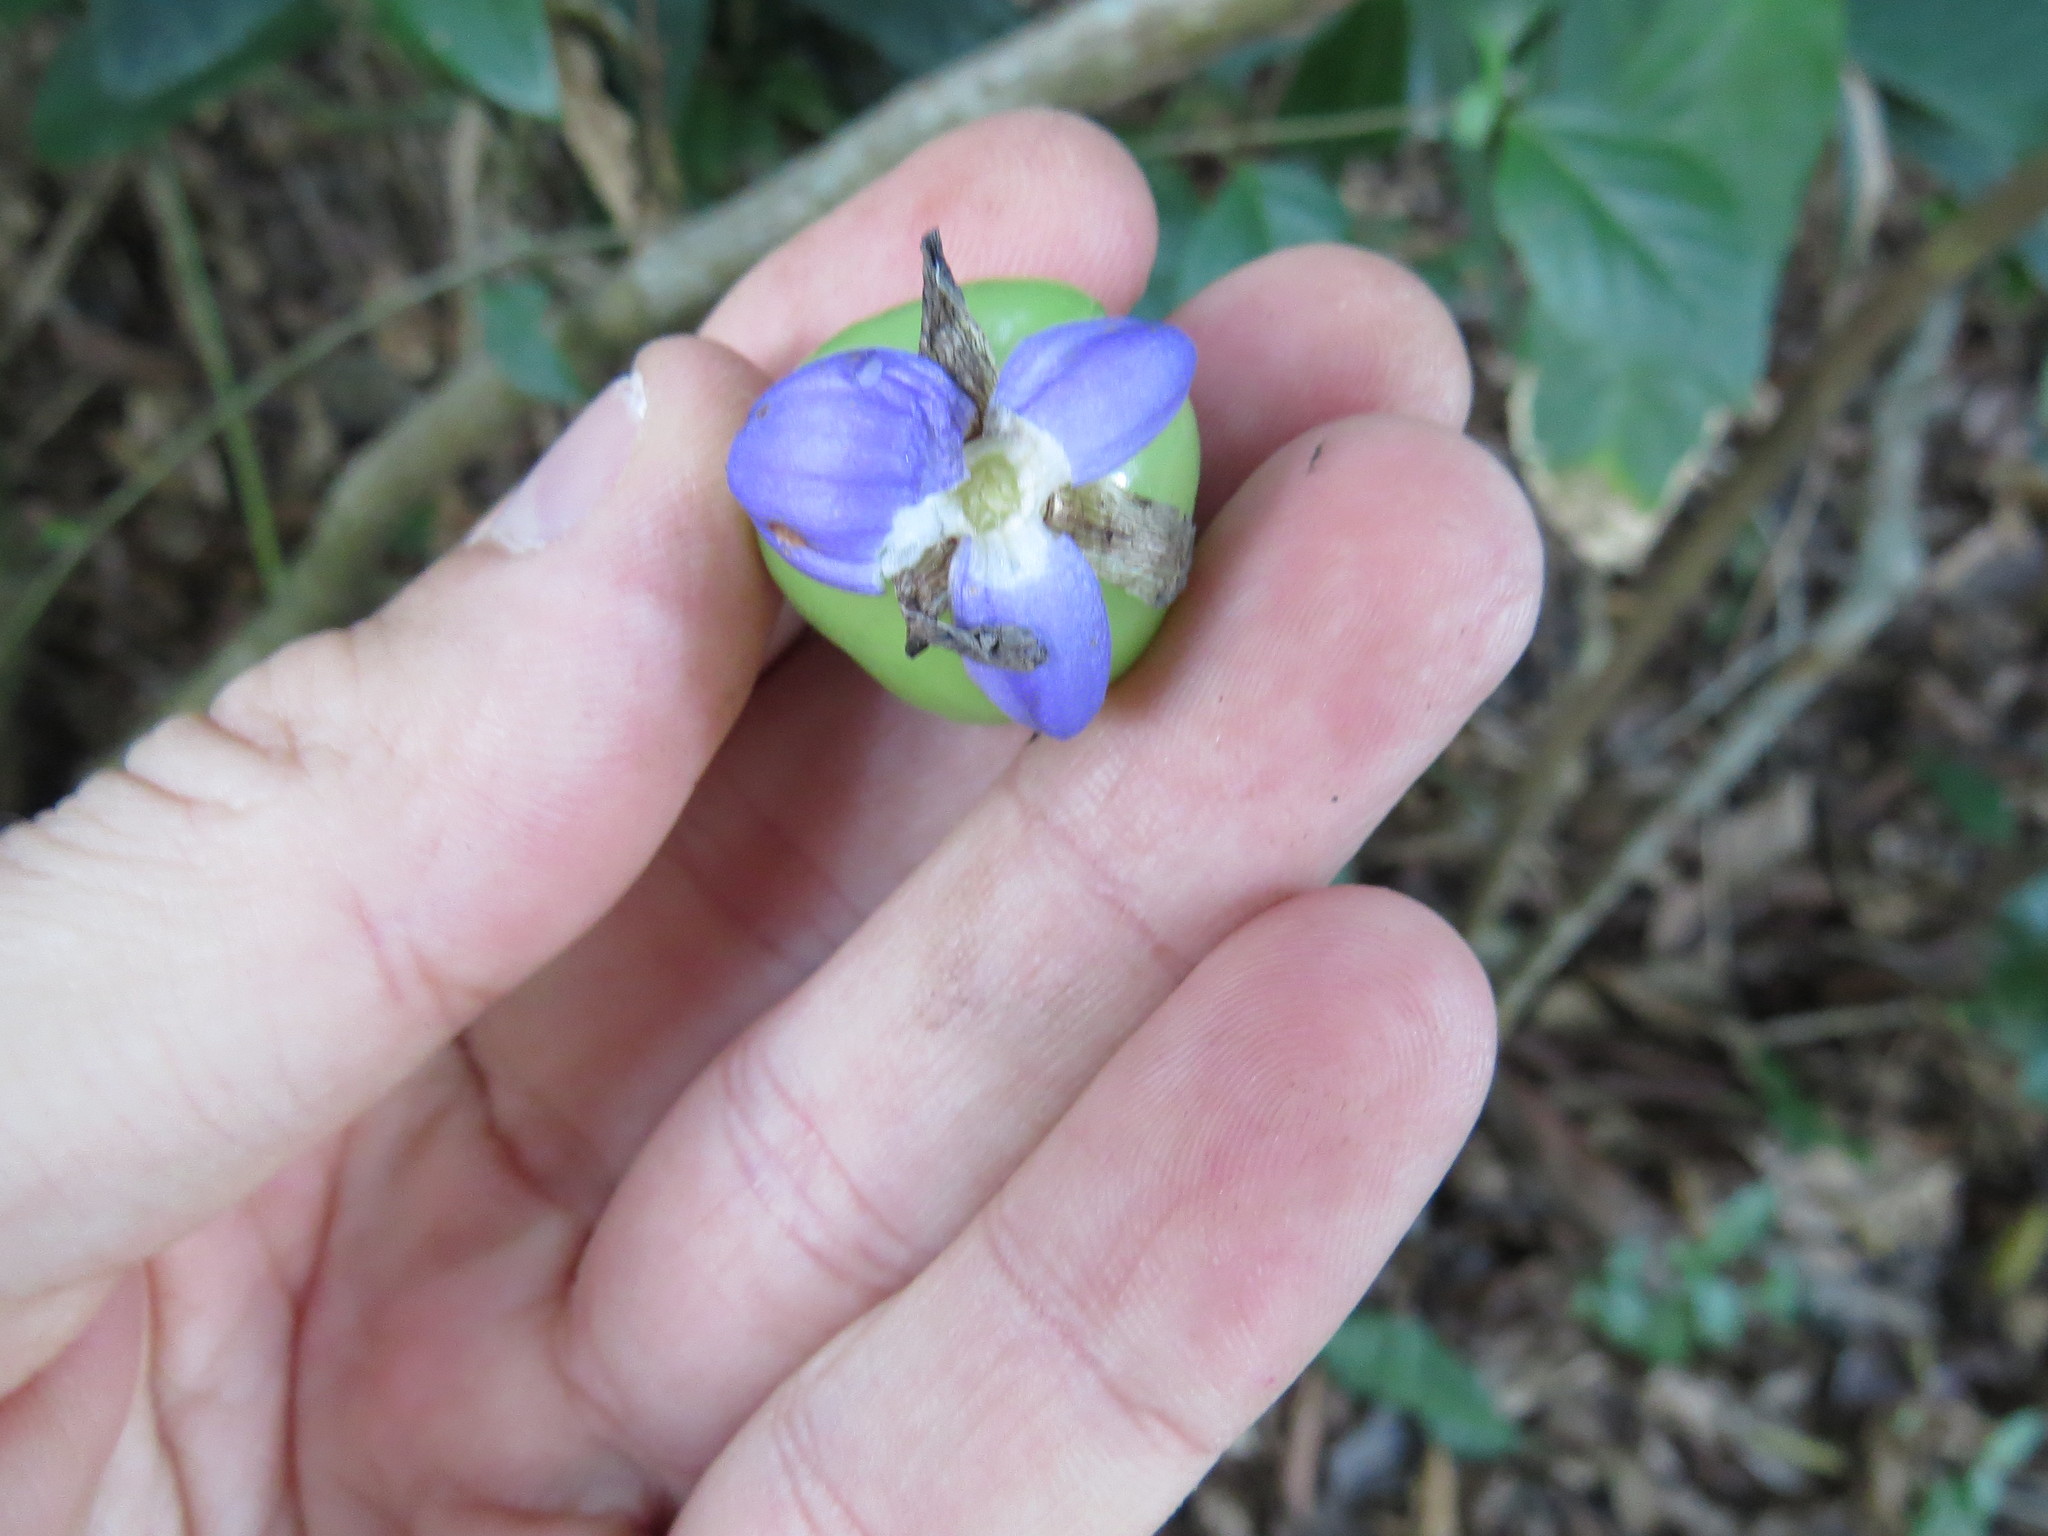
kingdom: Plantae
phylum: Tracheophyta
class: Liliopsida
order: Commelinales
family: Commelinaceae
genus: Dichorisandra
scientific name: Dichorisandra thyrsiflora
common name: Blue-ginger
